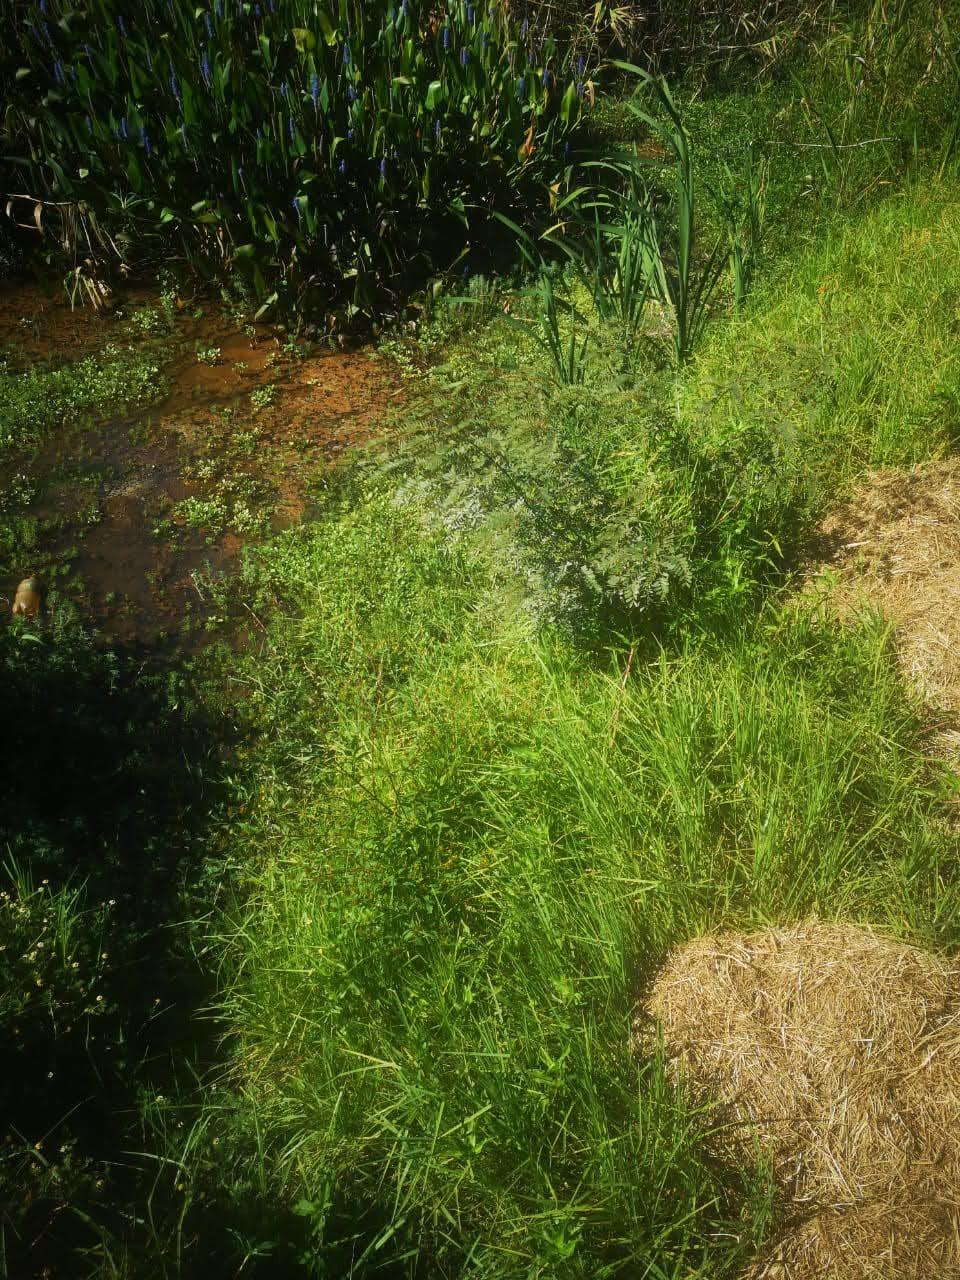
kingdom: Plantae
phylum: Tracheophyta
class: Magnoliopsida
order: Asterales
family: Asteraceae
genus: Bidens
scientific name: Bidens frondosa
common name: Beggarticks
